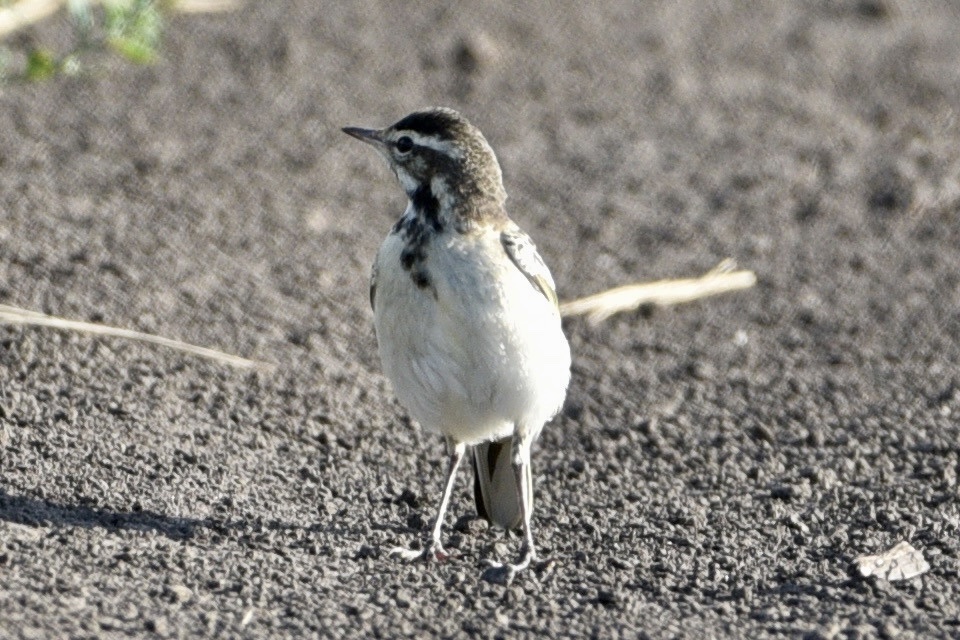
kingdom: Animalia
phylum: Chordata
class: Aves
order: Passeriformes
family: Motacillidae
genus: Motacilla
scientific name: Motacilla flava
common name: Western yellow wagtail
